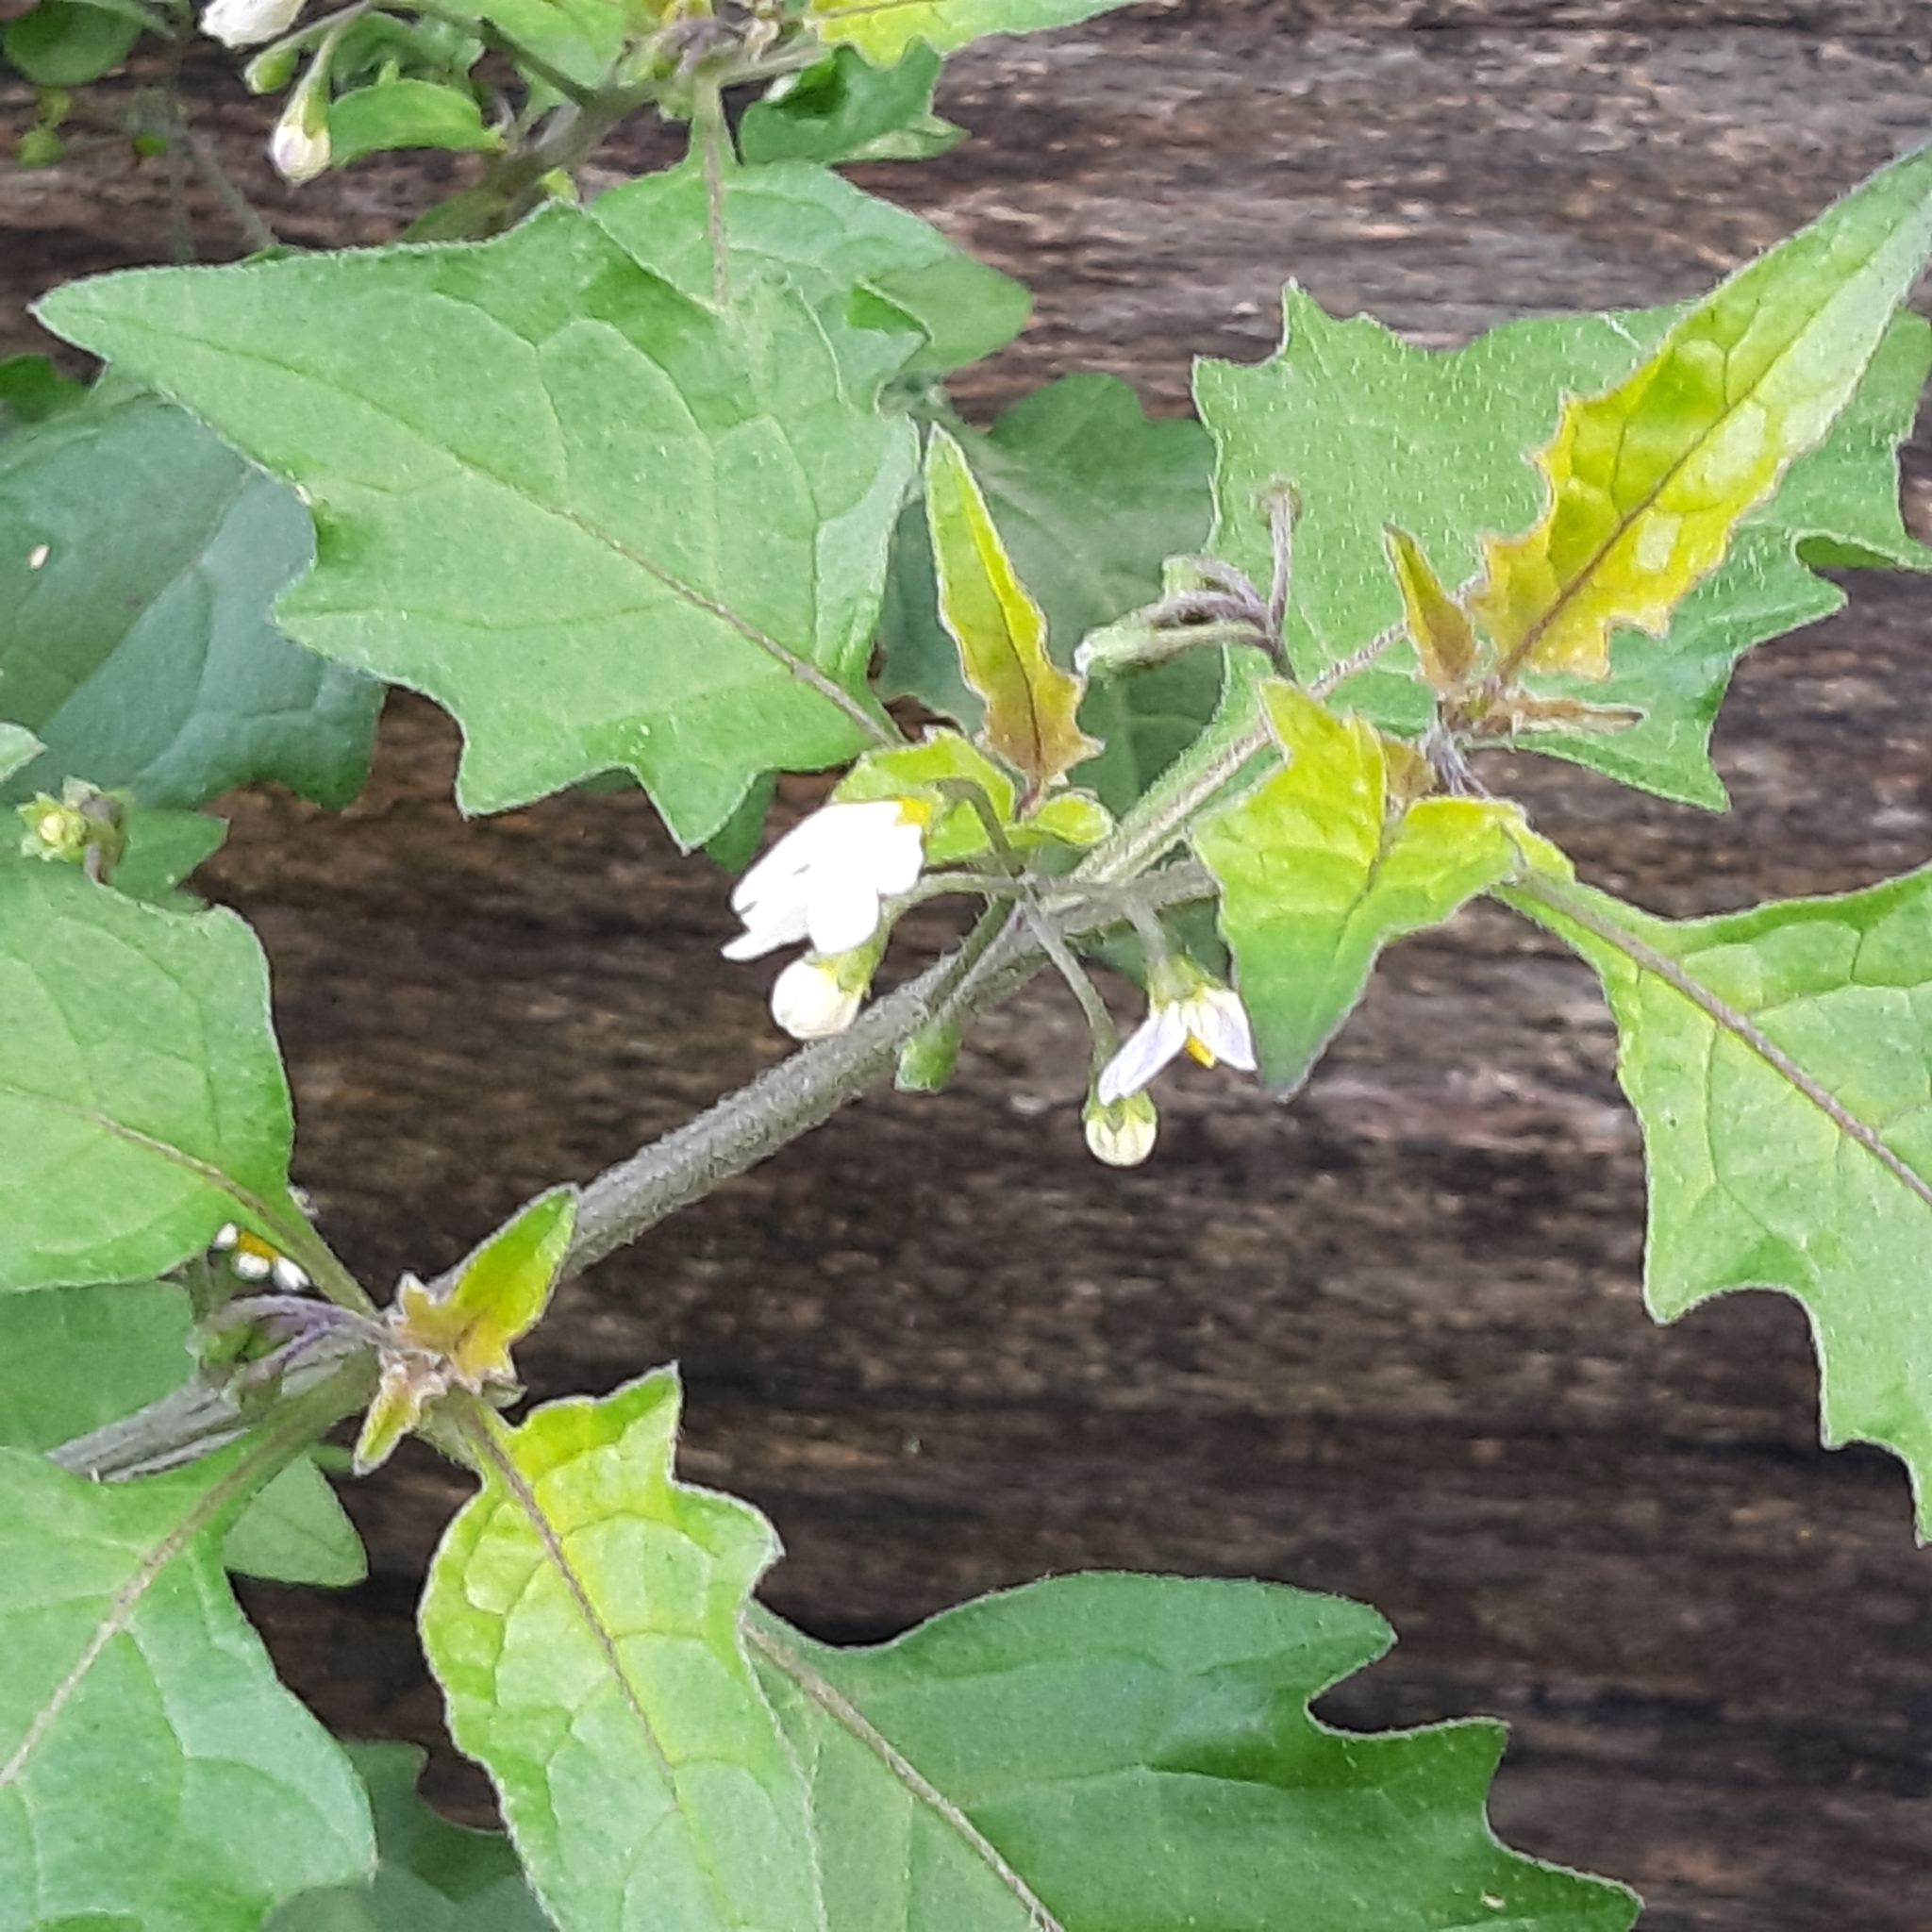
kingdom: Plantae
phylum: Tracheophyta
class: Magnoliopsida
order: Solanales
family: Solanaceae
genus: Solanum
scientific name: Solanum nigrum
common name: Black nightshade
